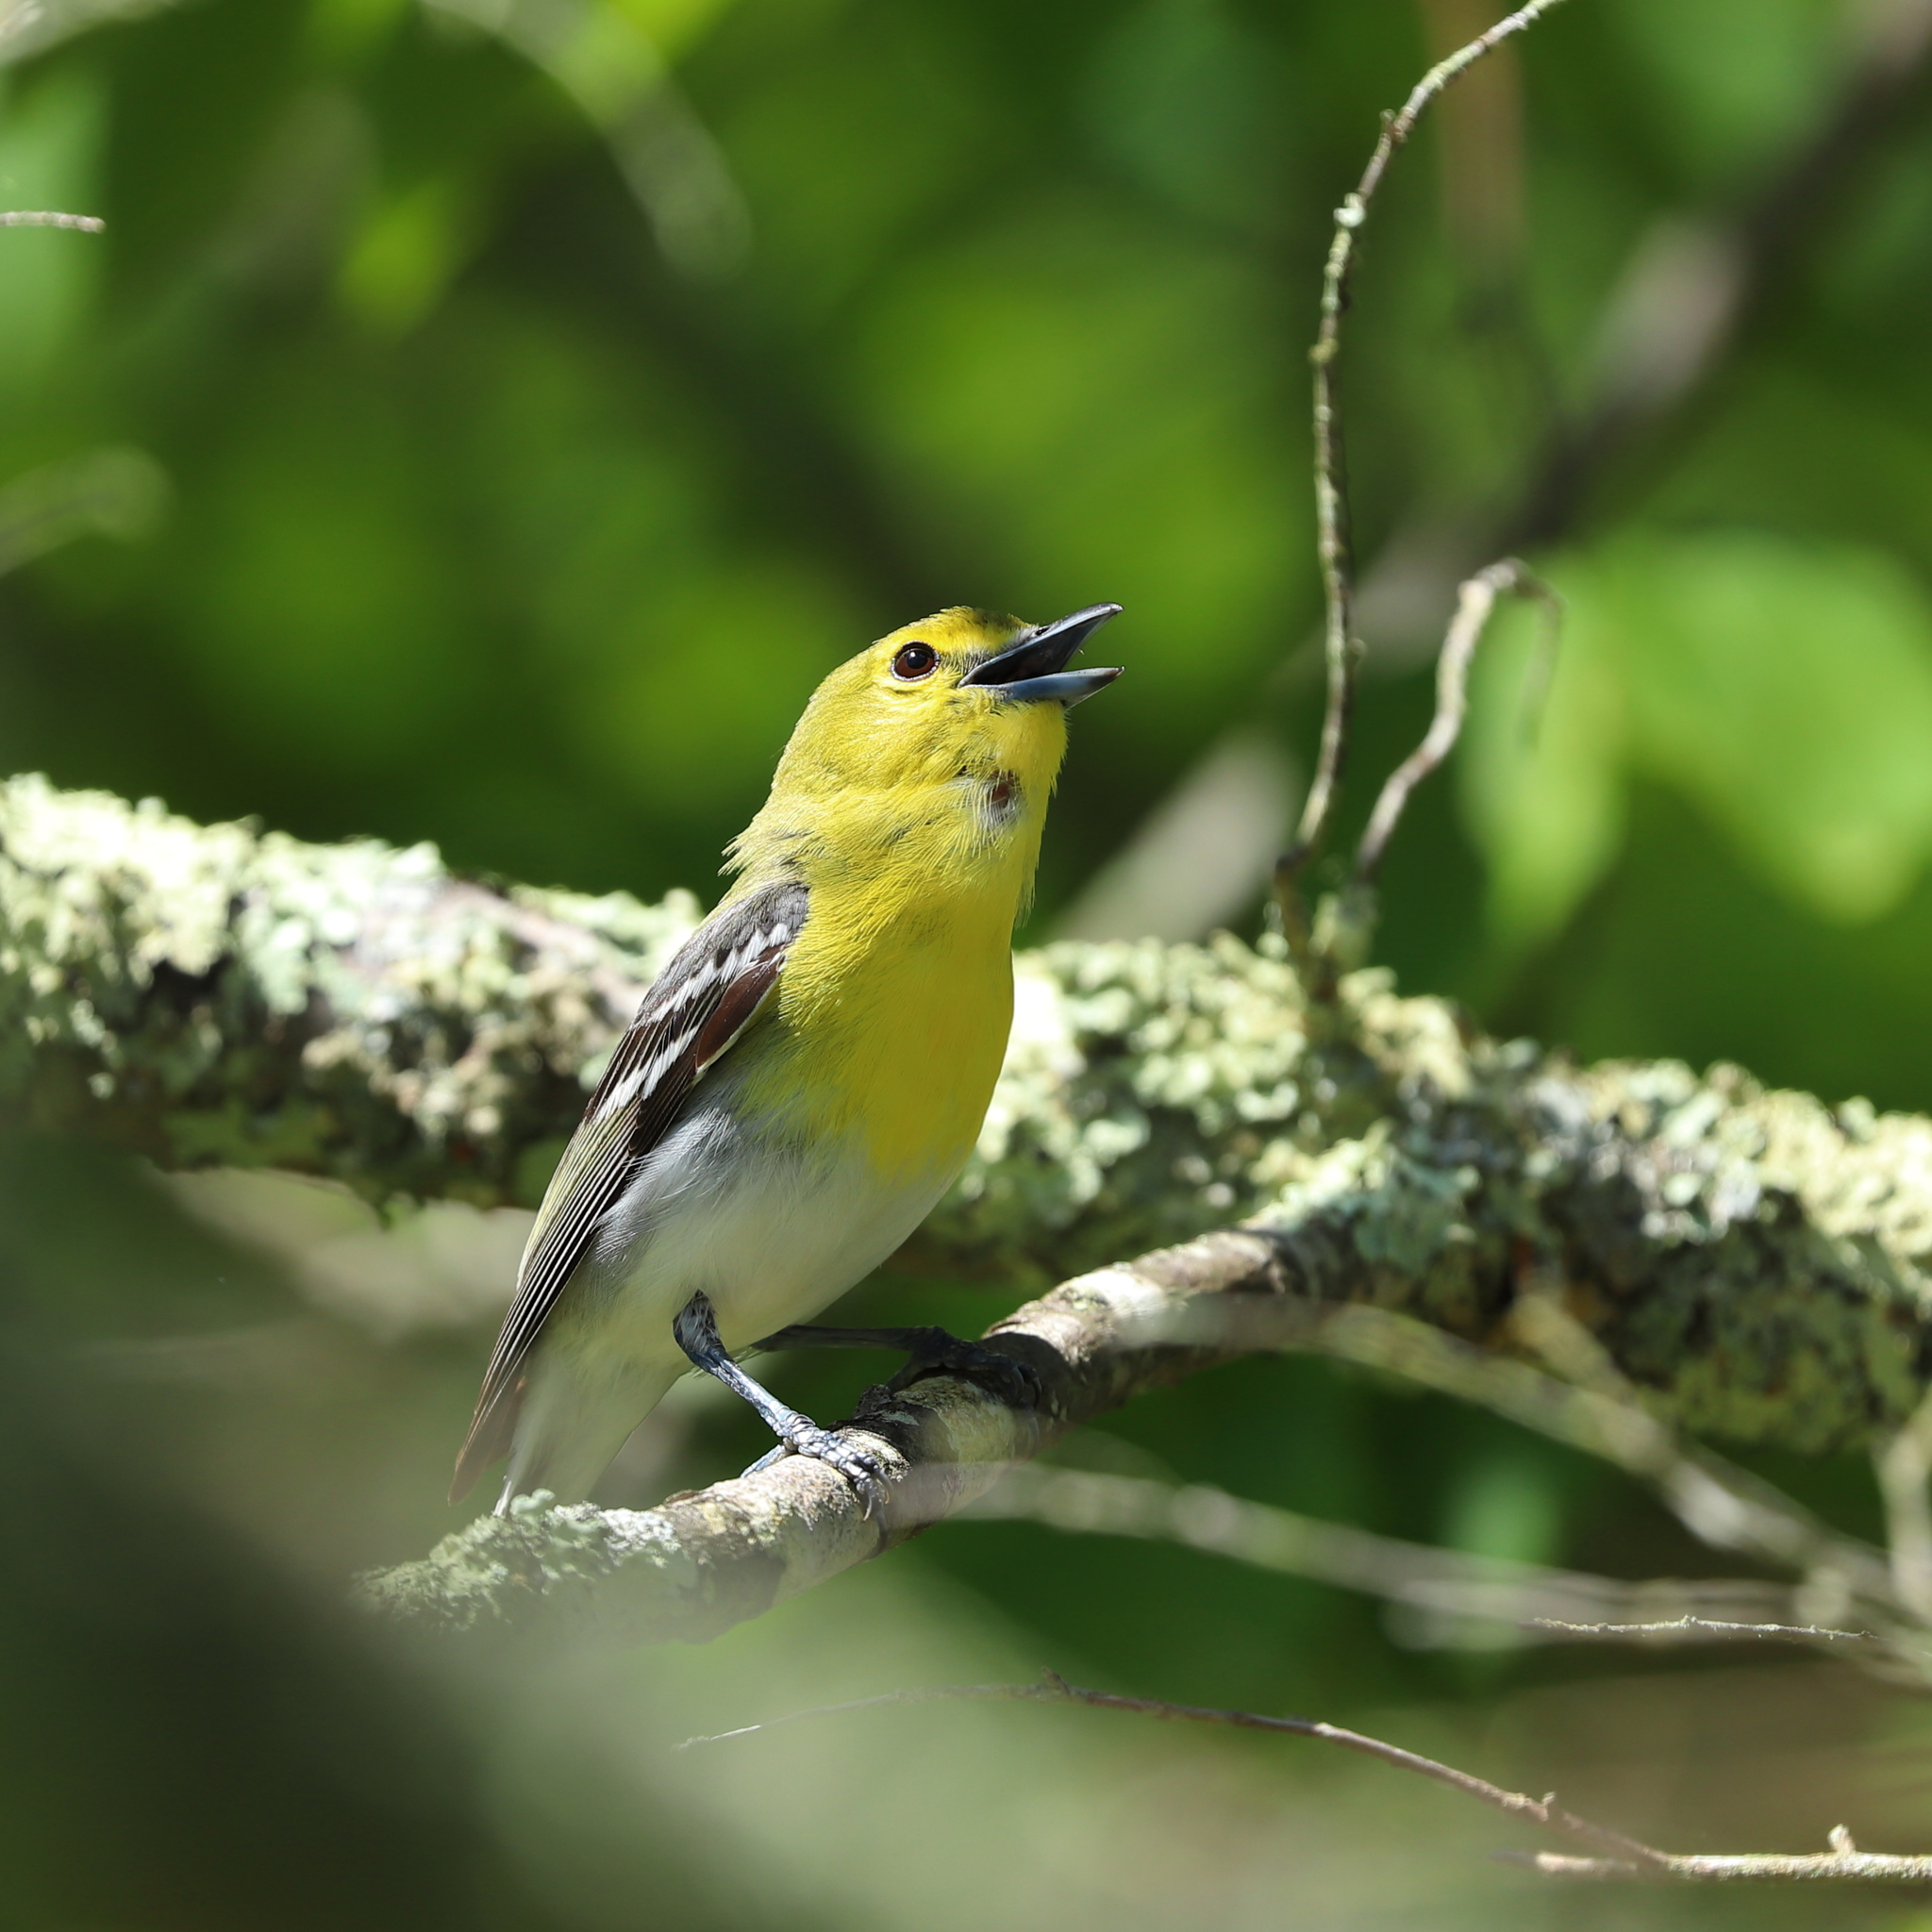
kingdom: Animalia
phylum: Chordata
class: Aves
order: Passeriformes
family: Vireonidae
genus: Vireo
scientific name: Vireo flavifrons
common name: Yellow-throated vireo
